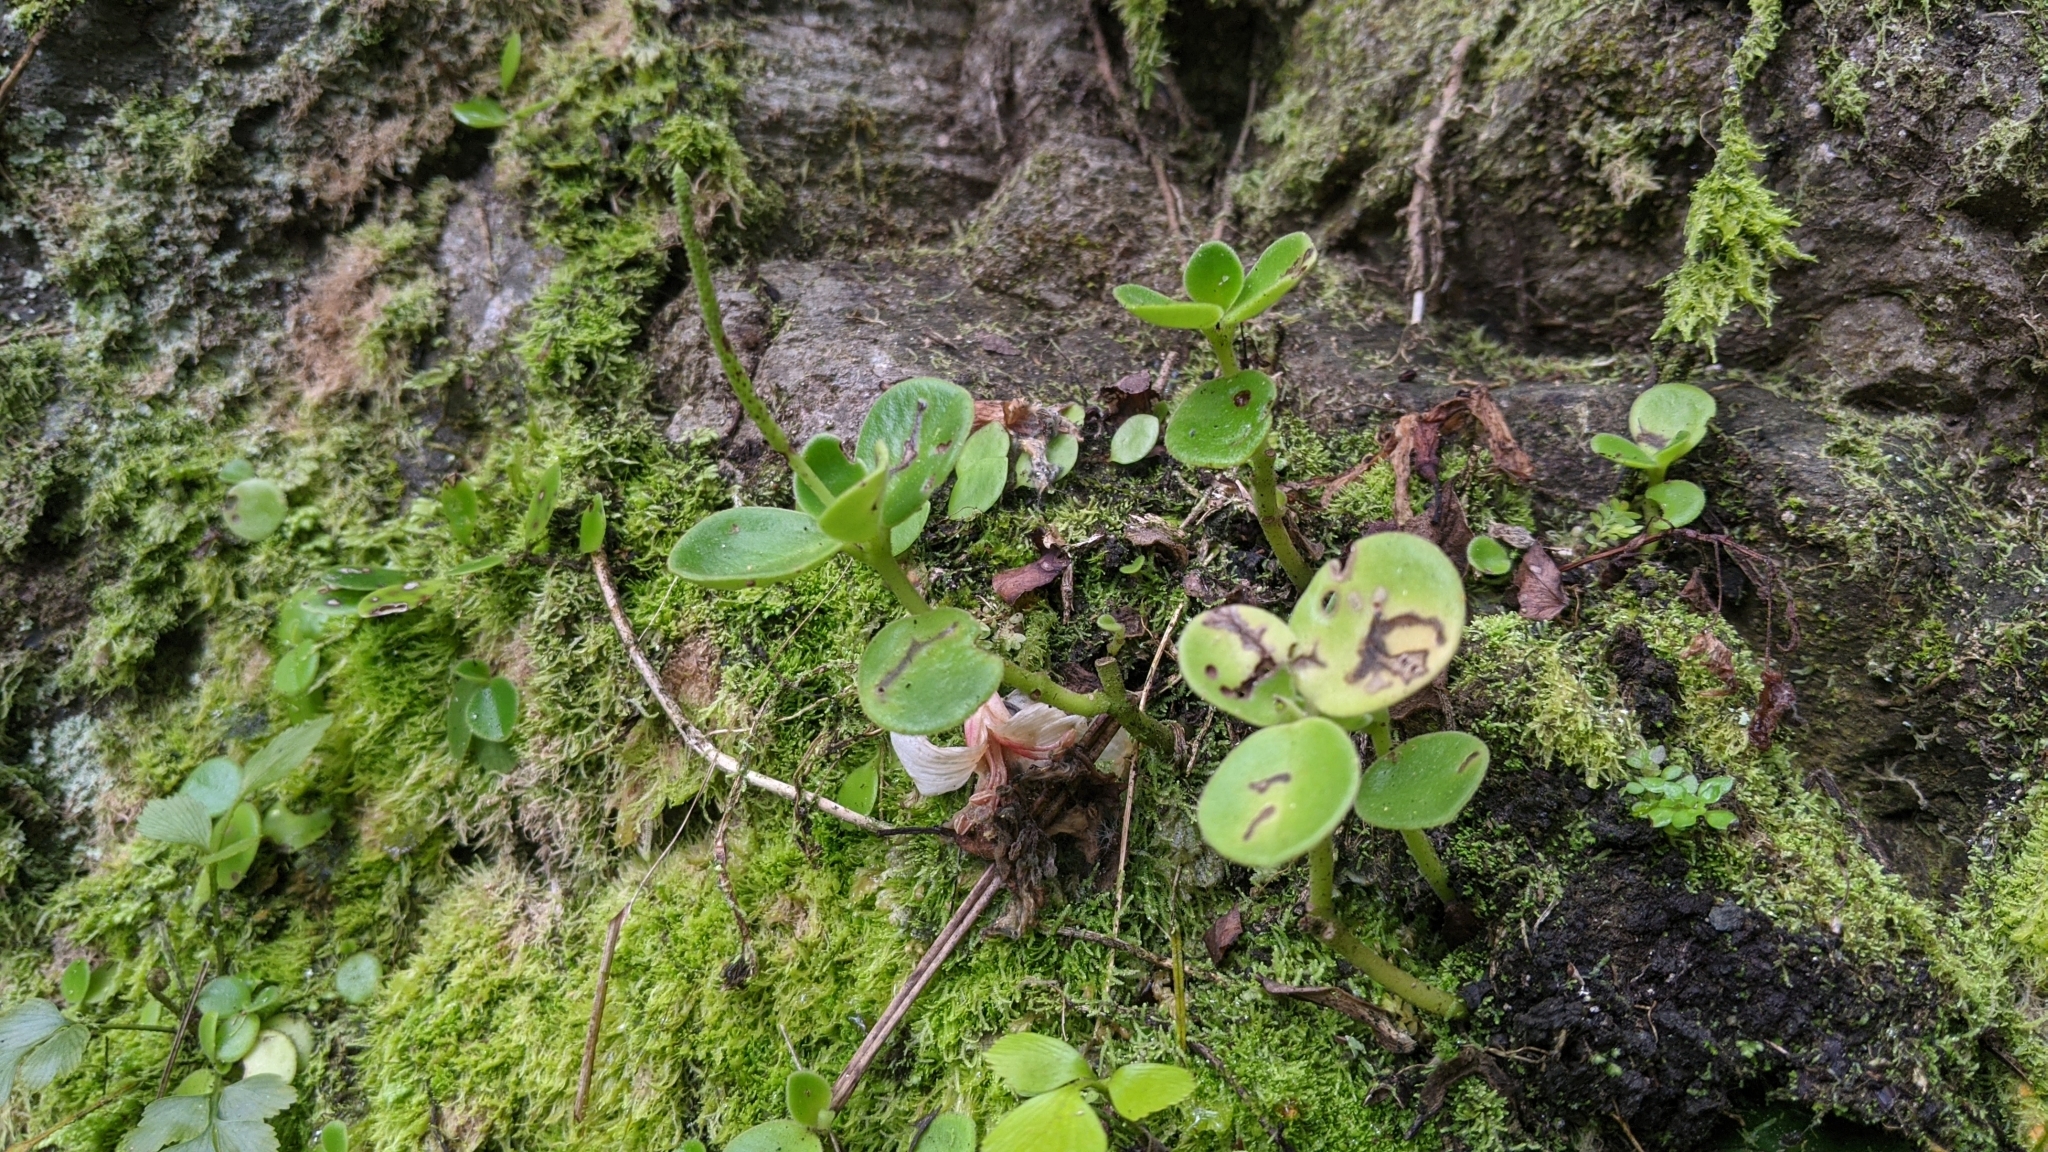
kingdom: Plantae
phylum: Tracheophyta
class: Magnoliopsida
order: Piperales
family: Piperaceae
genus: Peperomia
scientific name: Peperomia japonica
